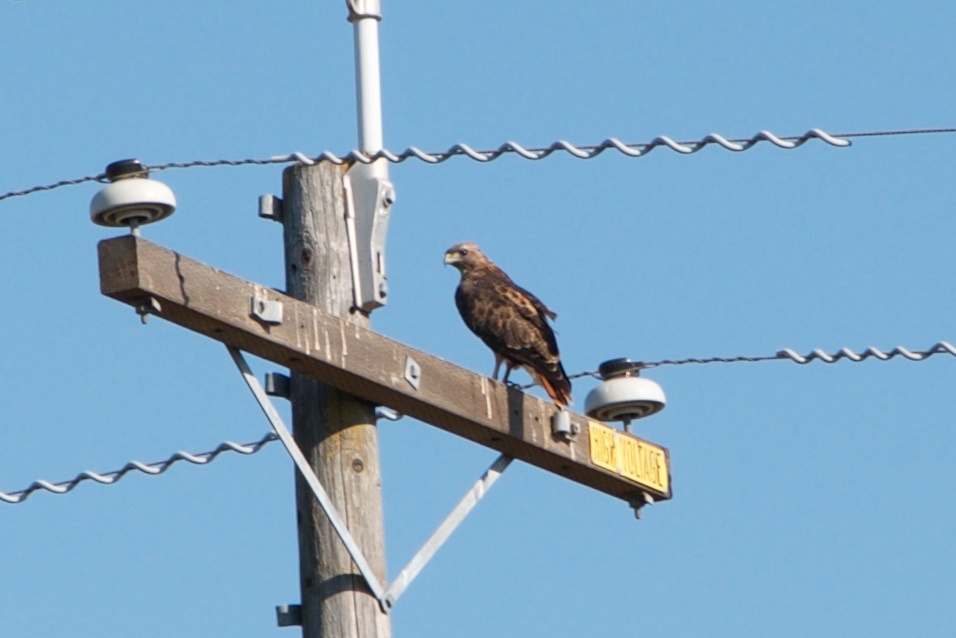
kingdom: Animalia
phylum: Chordata
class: Aves
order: Accipitriformes
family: Accipitridae
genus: Buteo
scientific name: Buteo jamaicensis
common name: Red-tailed hawk
